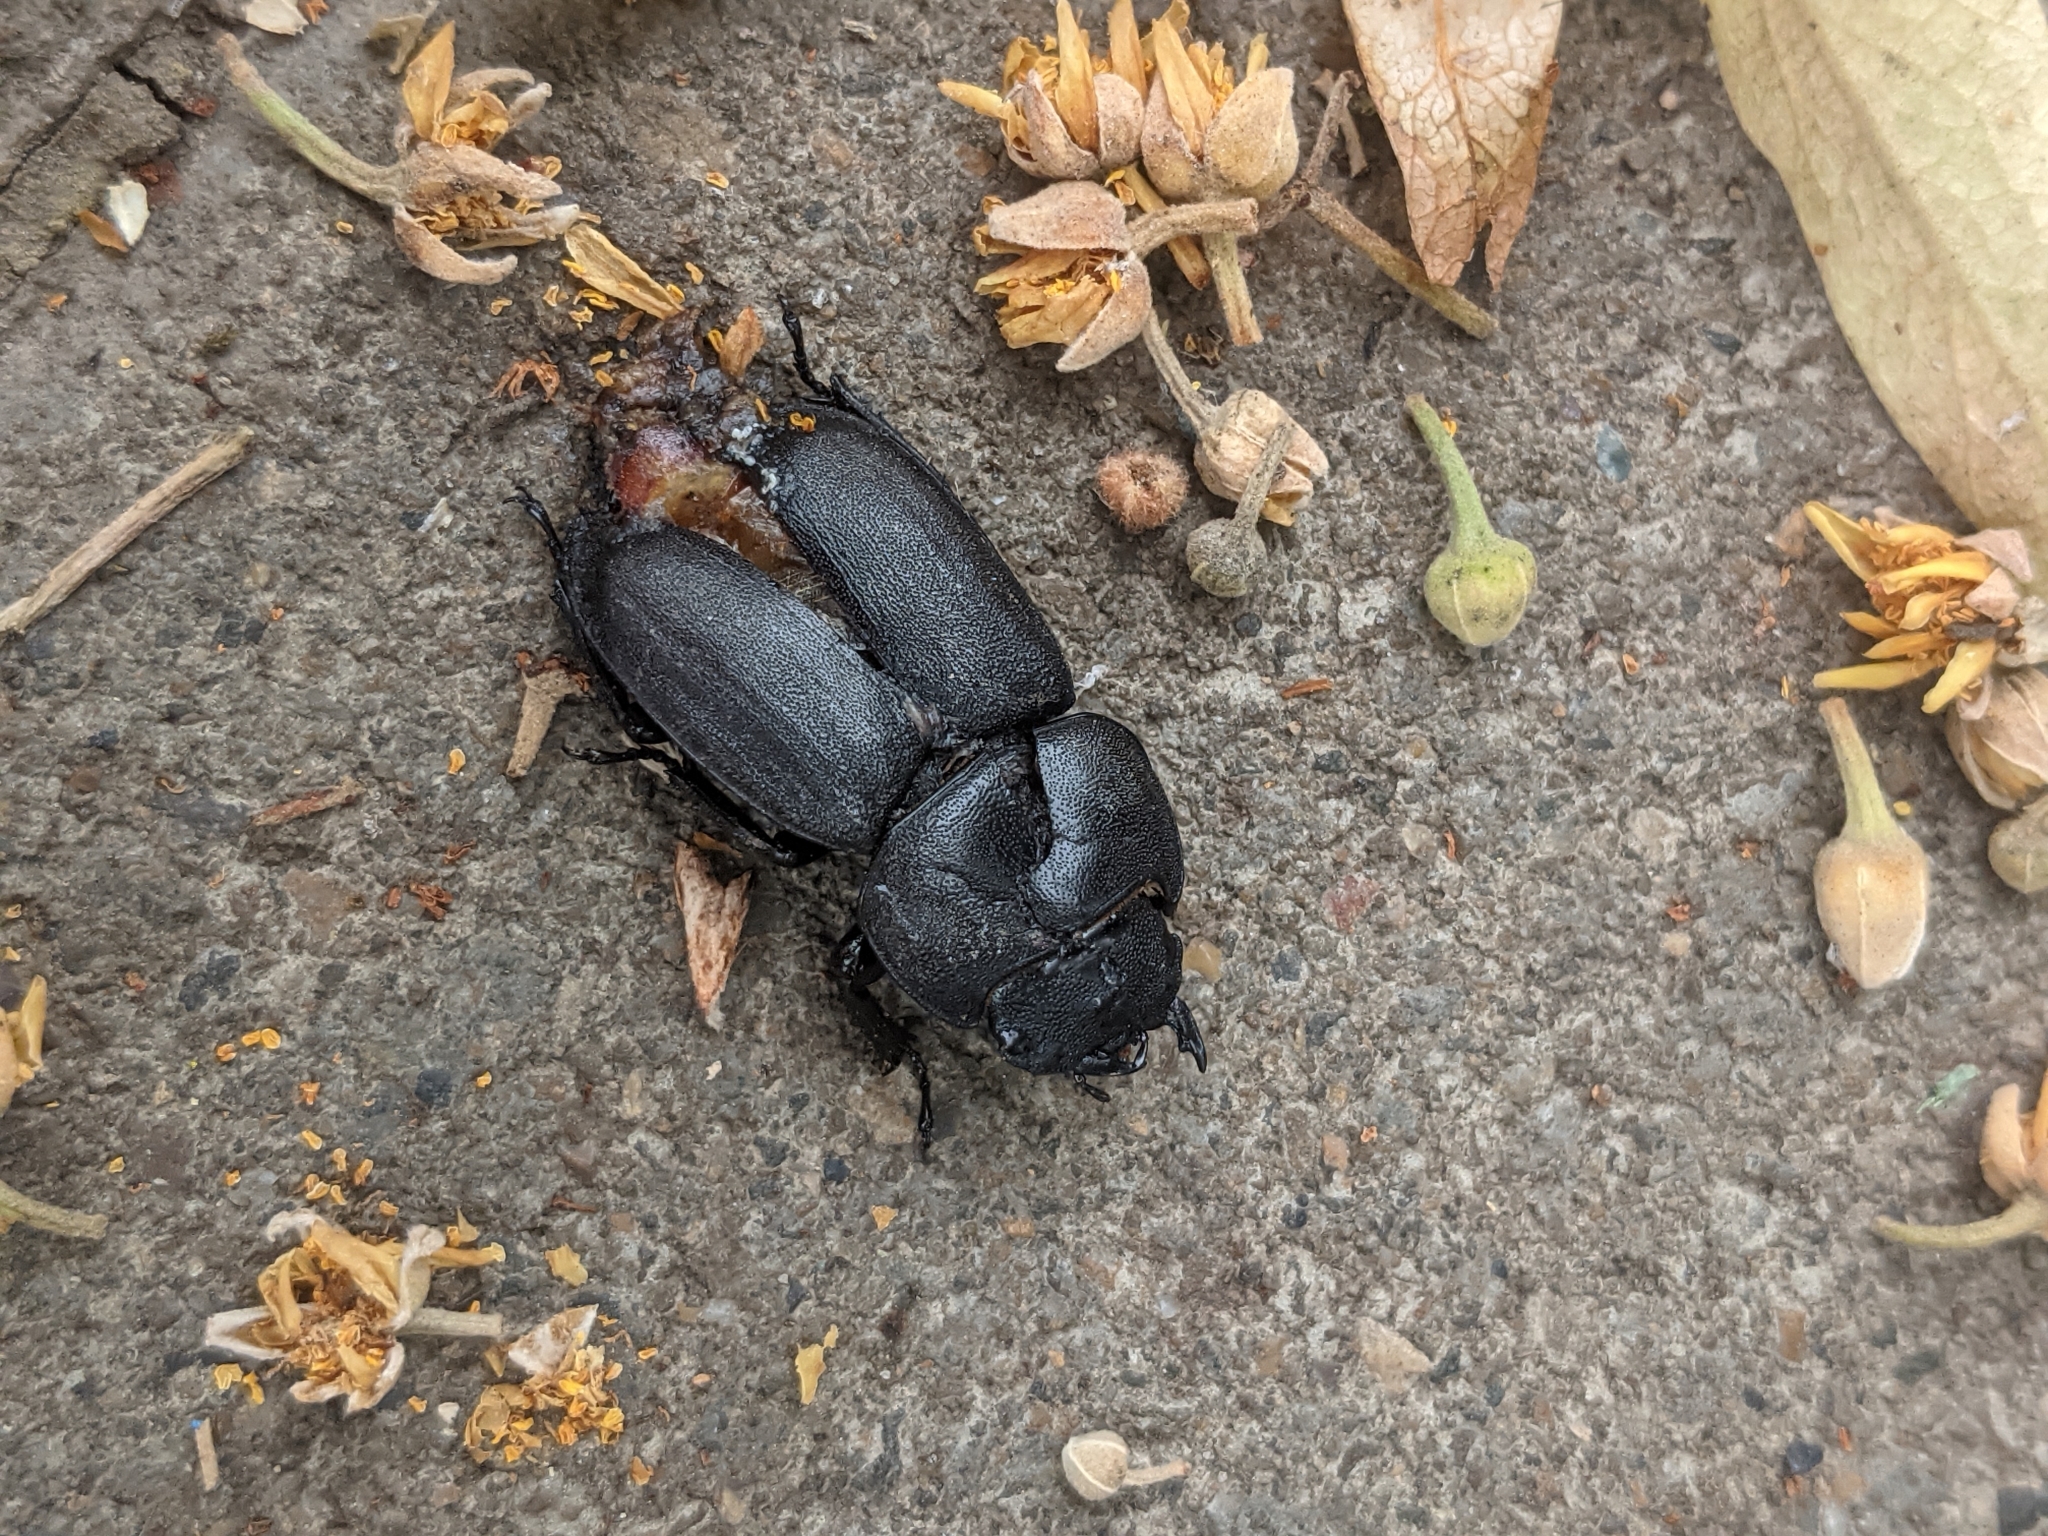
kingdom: Animalia
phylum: Arthropoda
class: Insecta
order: Coleoptera
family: Lucanidae
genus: Dorcus
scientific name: Dorcus parallelipipedus
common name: Lesser stag beetle
